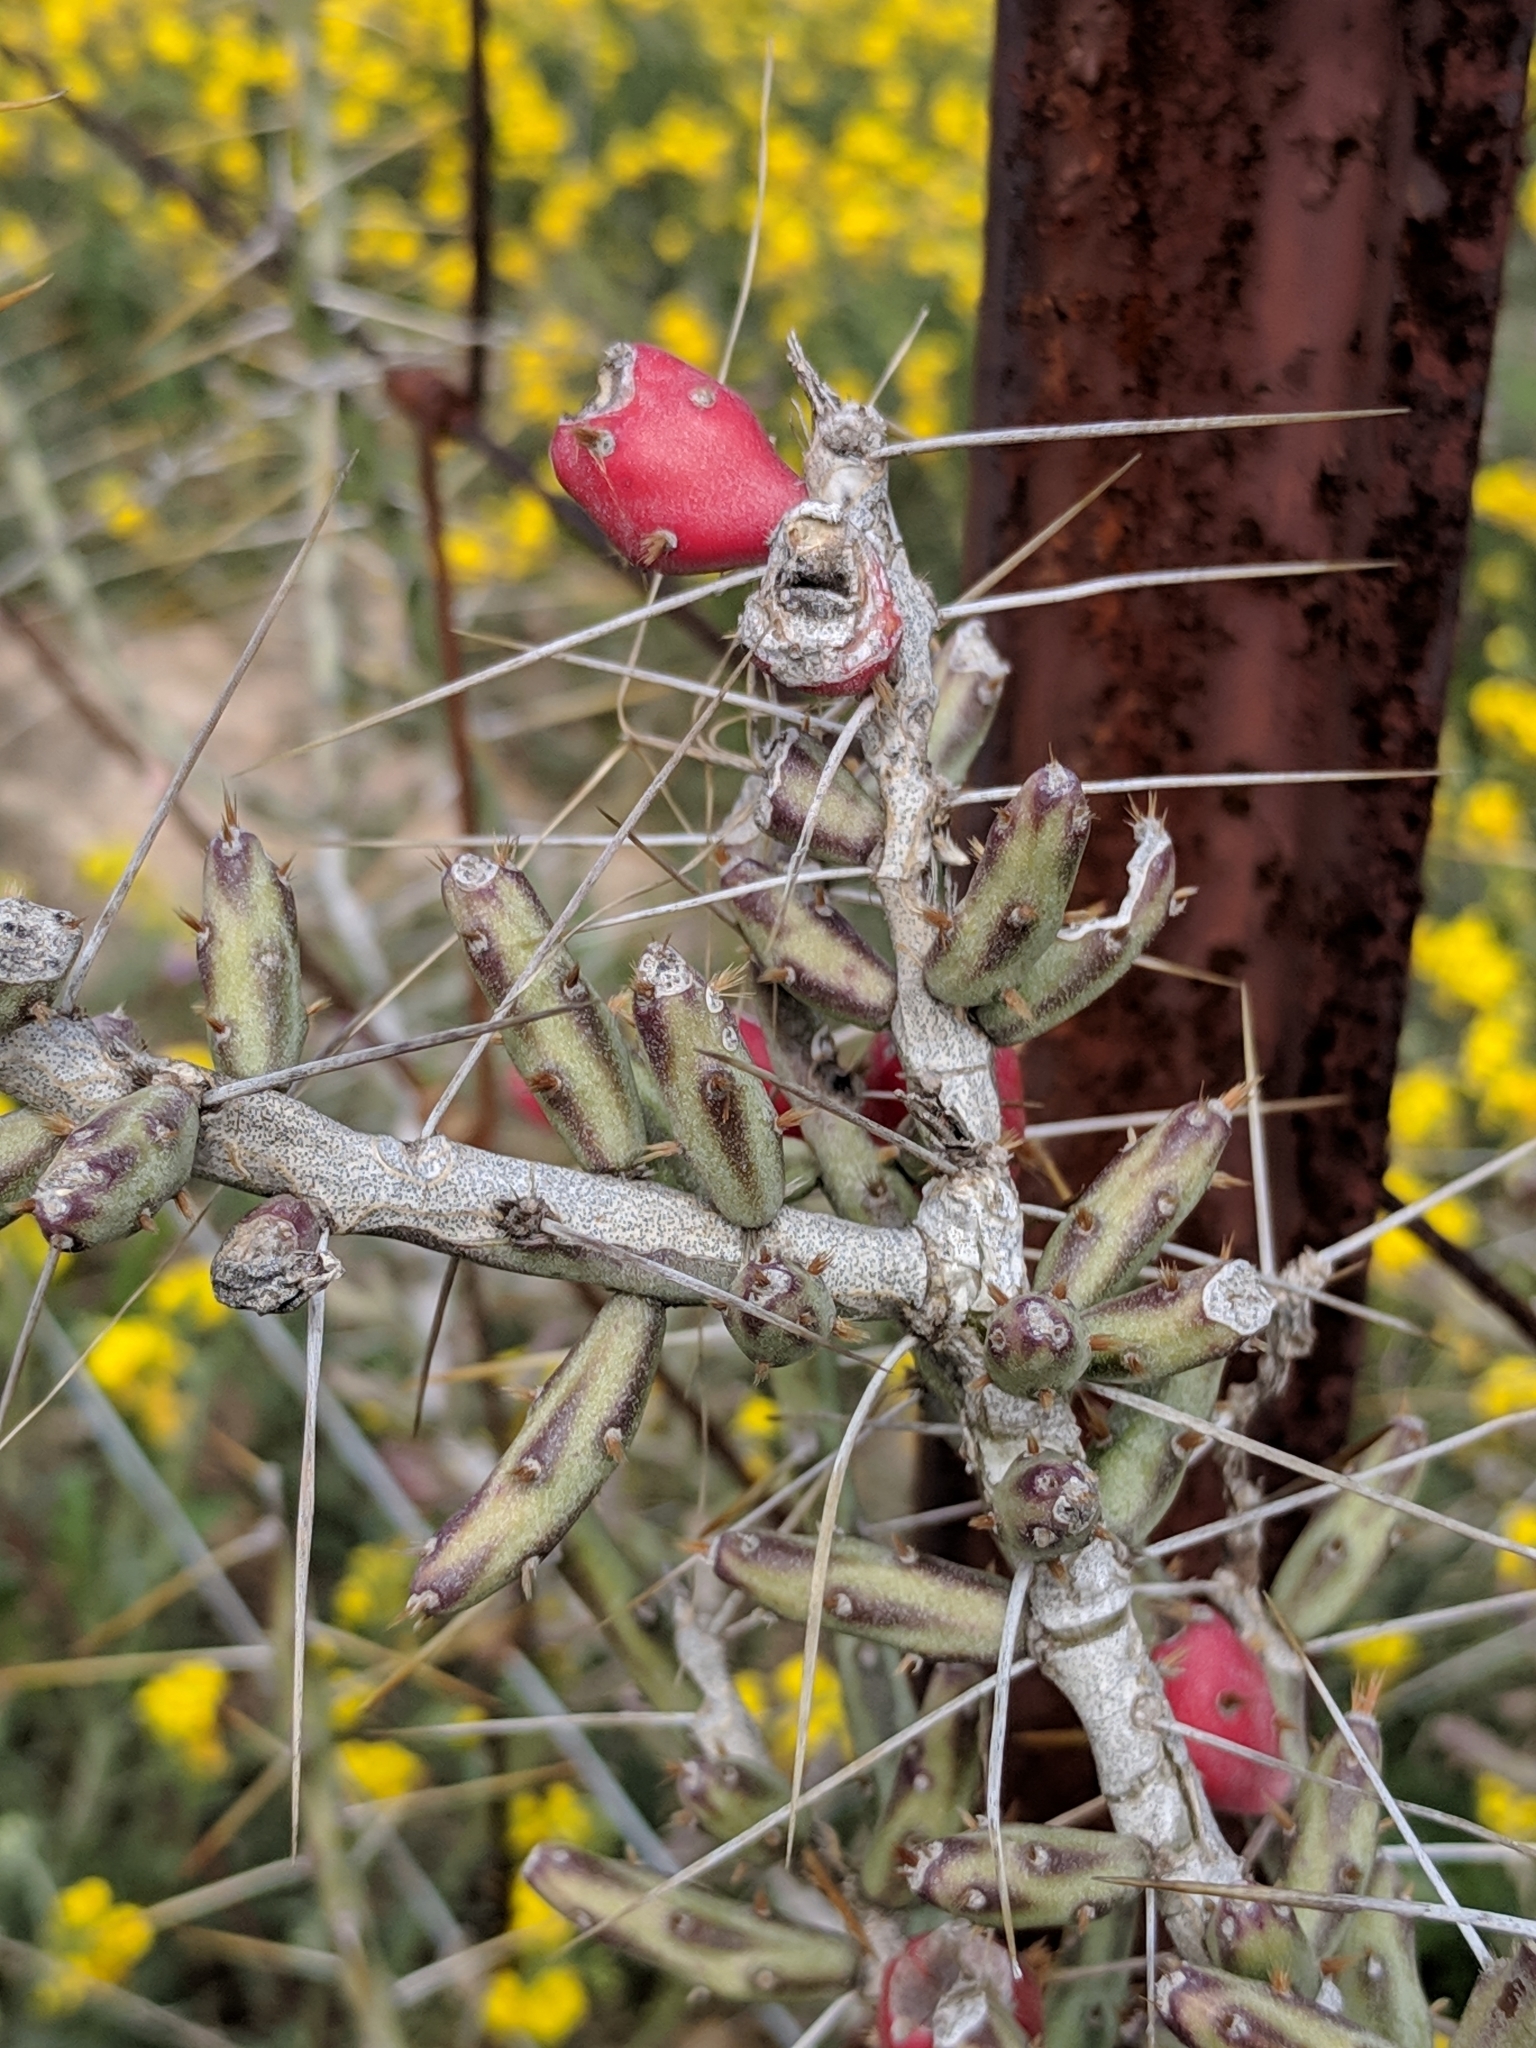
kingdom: Plantae
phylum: Tracheophyta
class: Magnoliopsida
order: Caryophyllales
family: Cactaceae
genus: Cylindropuntia
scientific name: Cylindropuntia leptocaulis
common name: Christmas cactus
